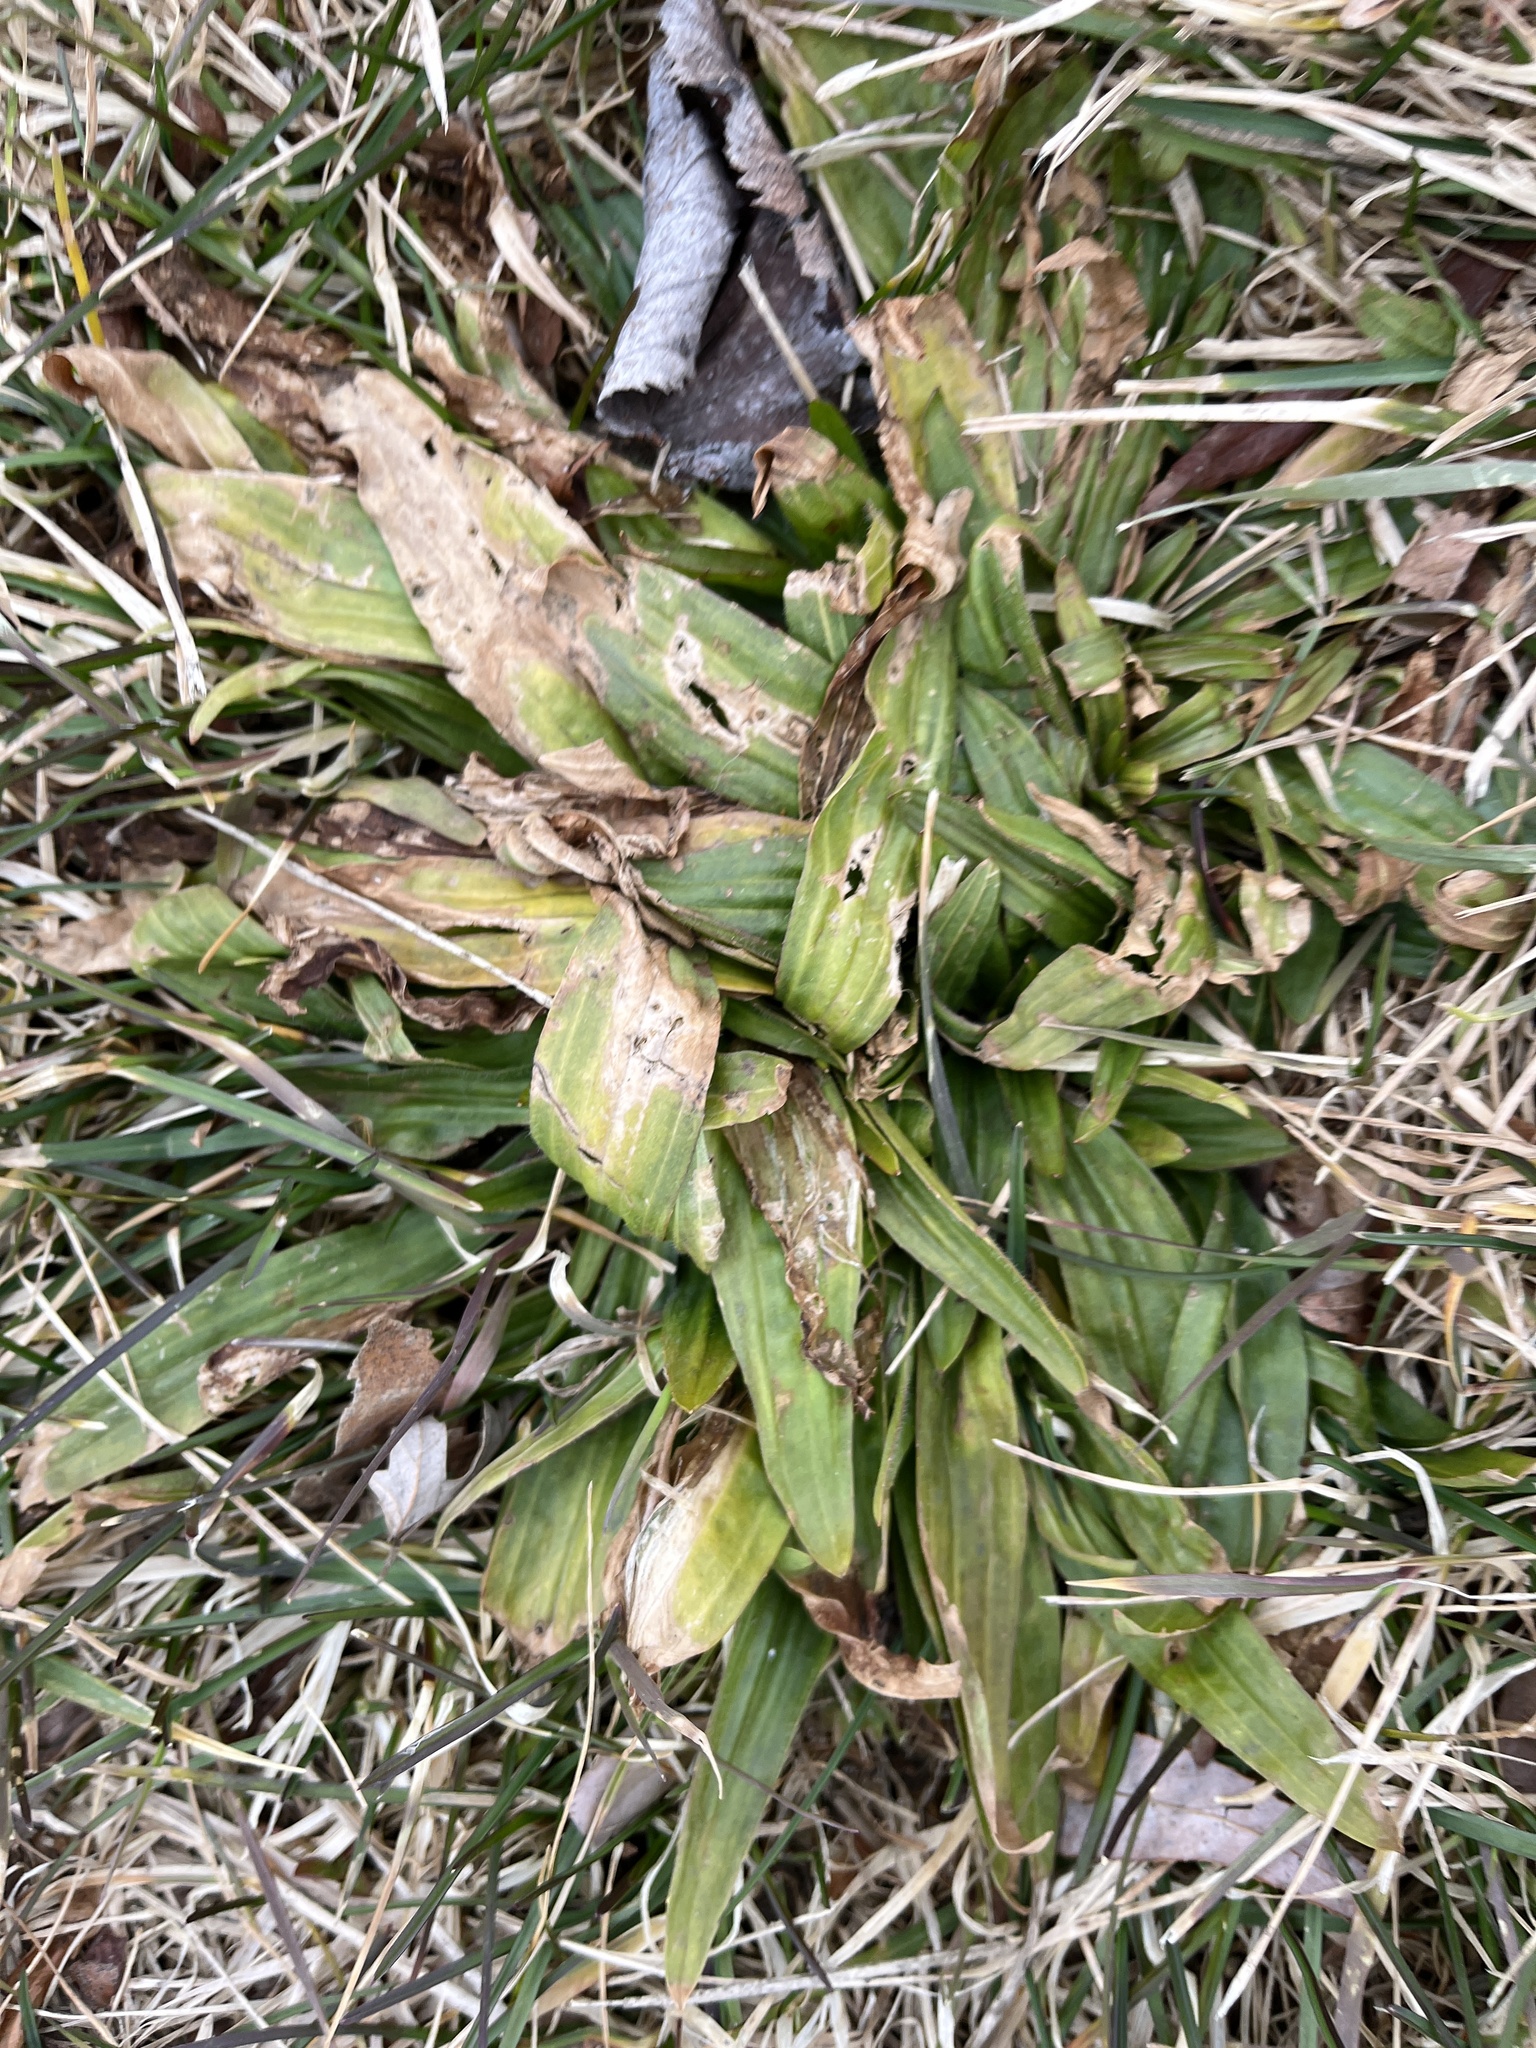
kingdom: Plantae
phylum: Tracheophyta
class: Magnoliopsida
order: Lamiales
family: Plantaginaceae
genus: Plantago
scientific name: Plantago lanceolata
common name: Ribwort plantain
